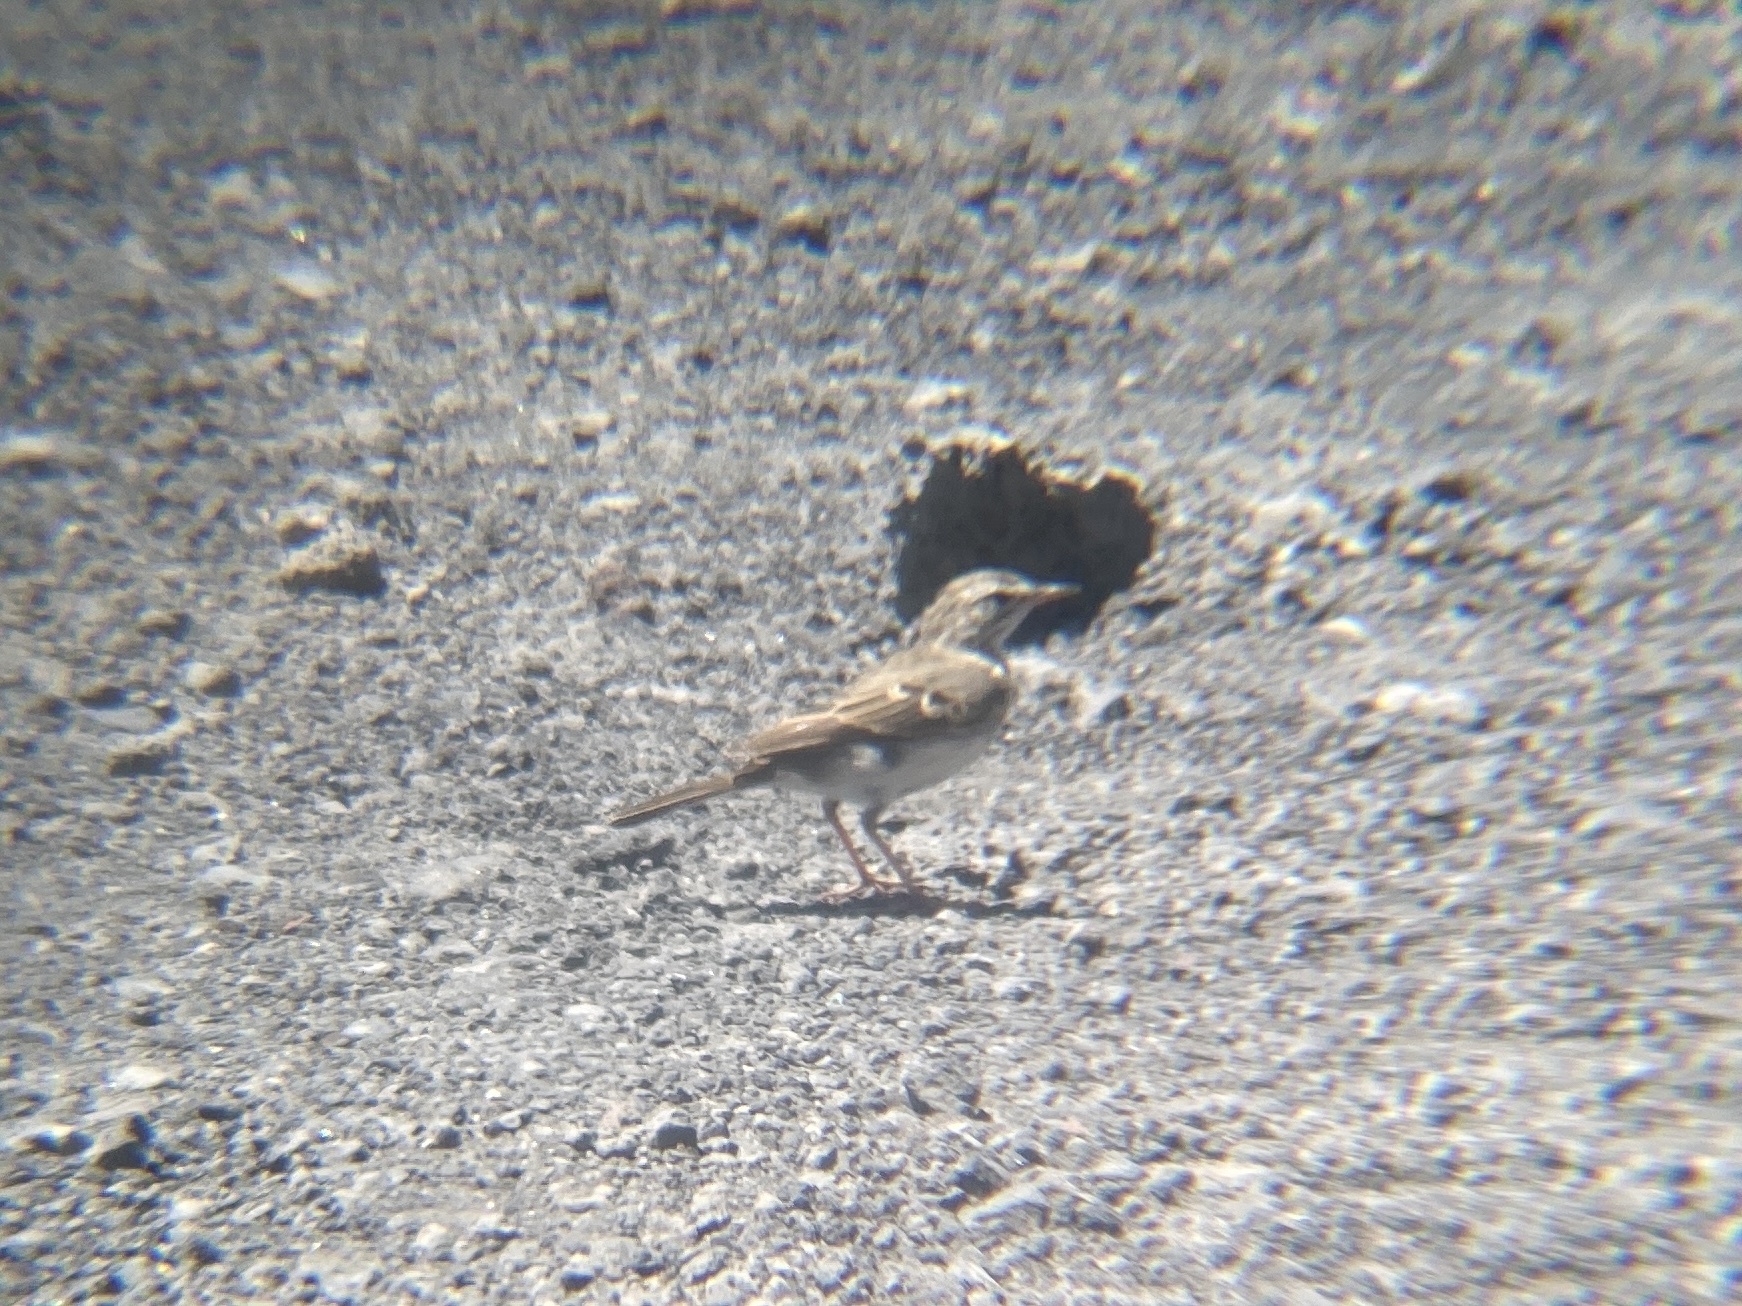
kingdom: Animalia
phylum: Chordata
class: Aves
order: Passeriformes
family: Motacillidae
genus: Anthus
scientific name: Anthus berthelotii
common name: Berthelot's pipit
